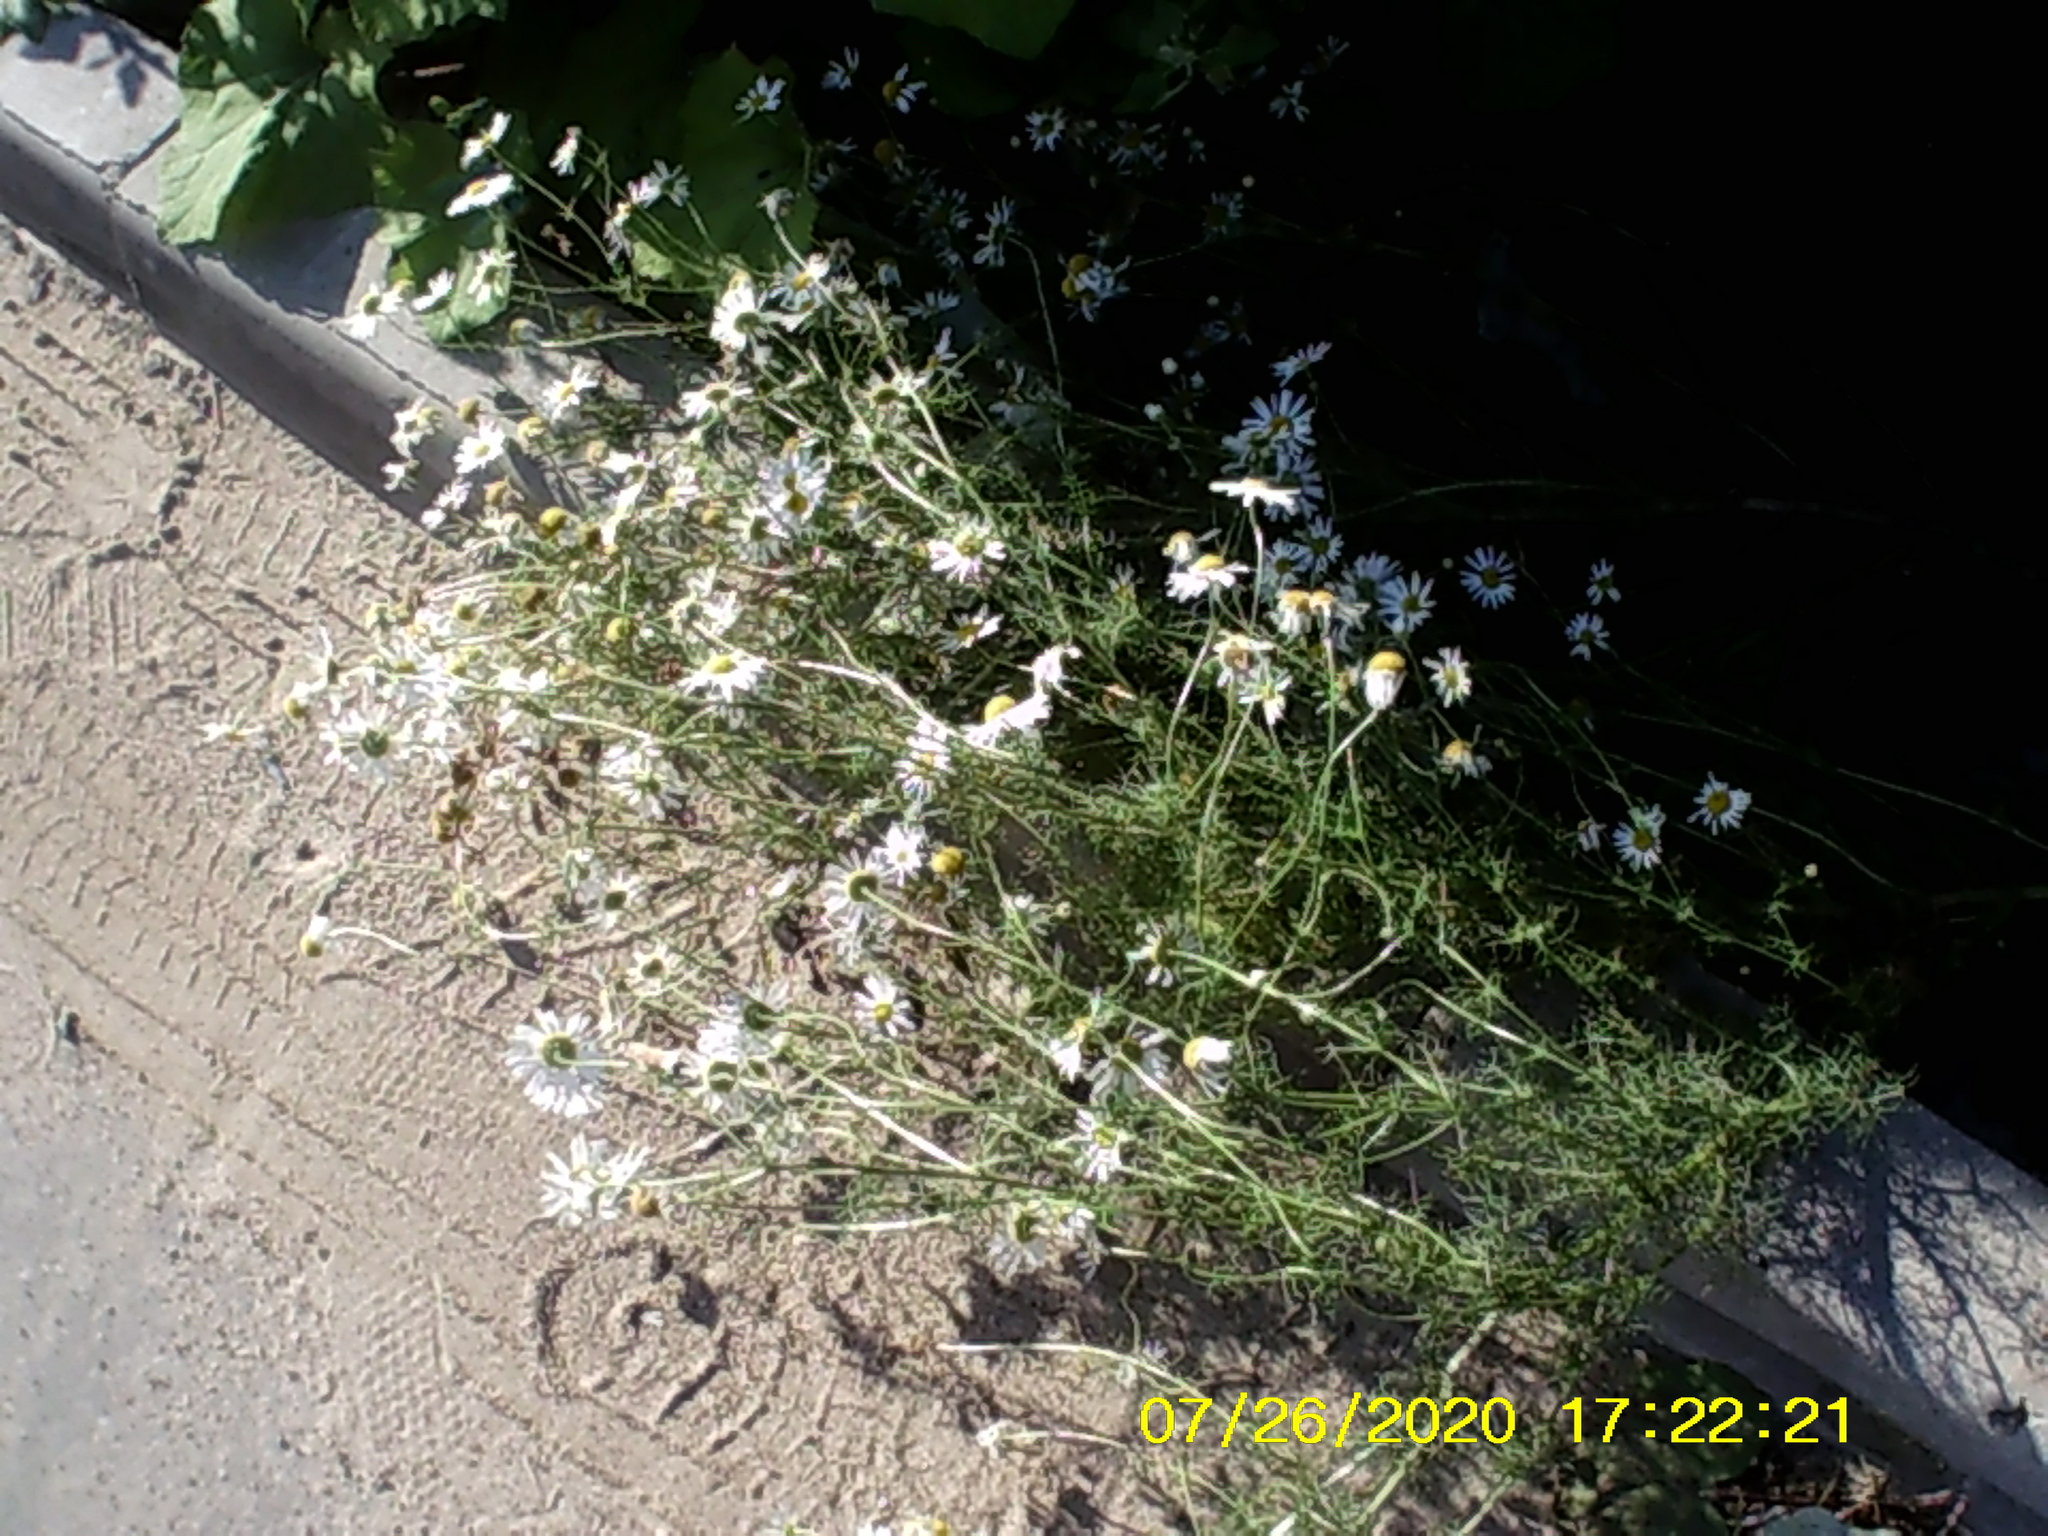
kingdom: Plantae
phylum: Tracheophyta
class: Magnoliopsida
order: Asterales
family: Asteraceae
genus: Tripleurospermum
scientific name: Tripleurospermum inodorum
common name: Scentless mayweed
